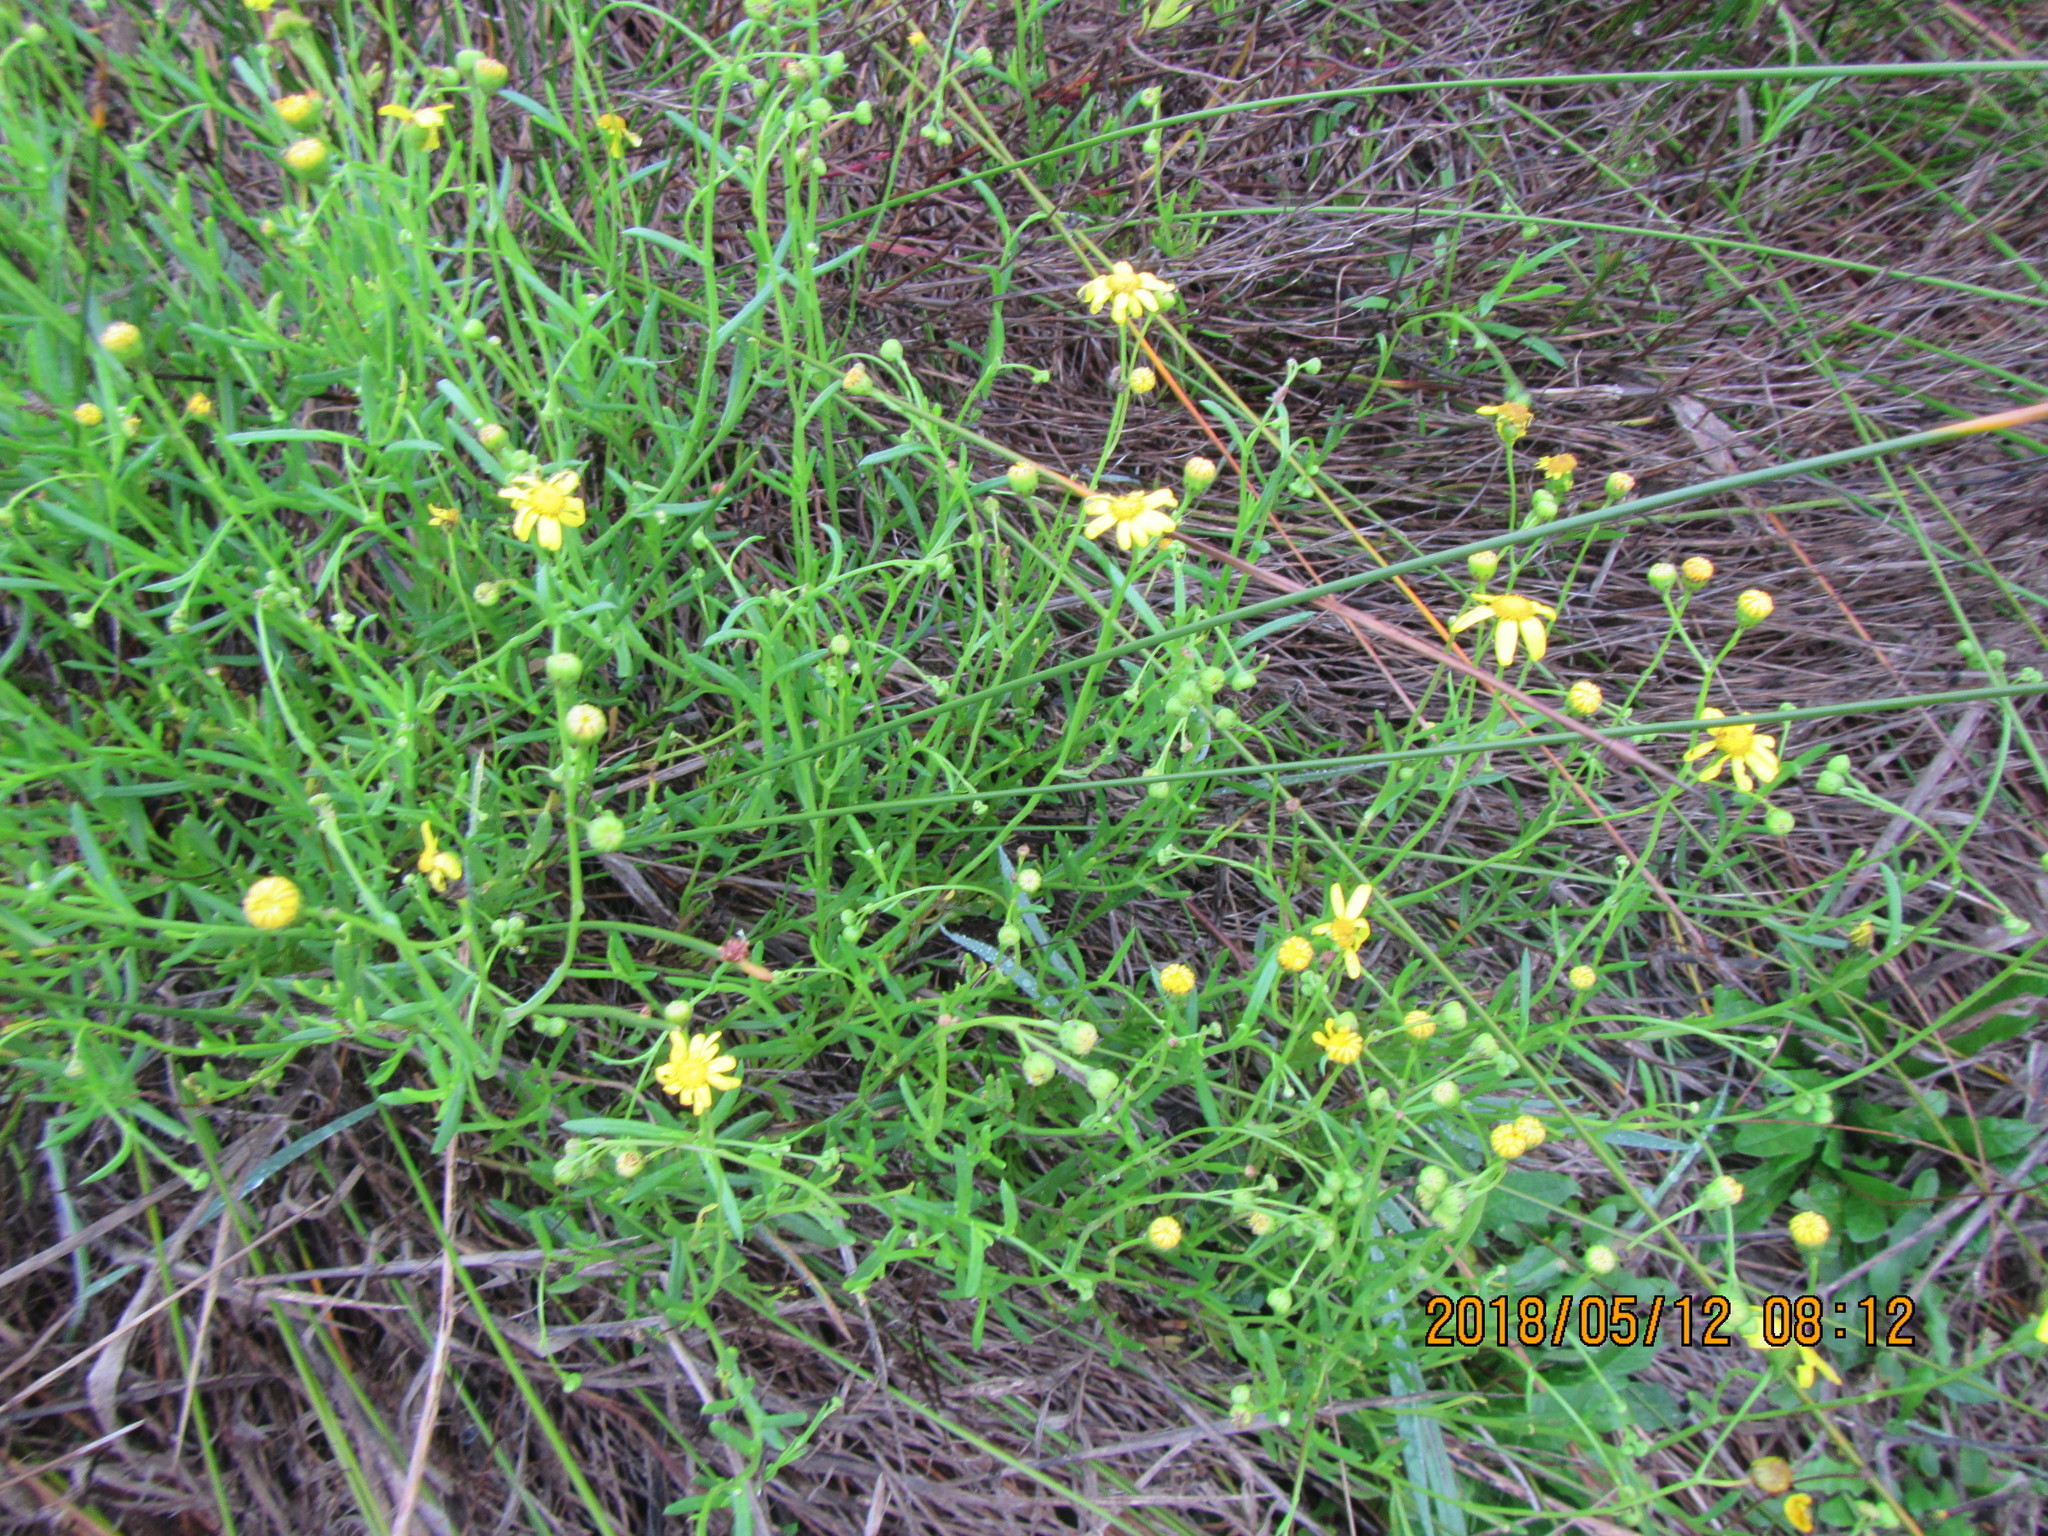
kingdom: Plantae
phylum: Tracheophyta
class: Magnoliopsida
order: Asterales
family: Asteraceae
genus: Senecio
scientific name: Senecio skirrhodon
